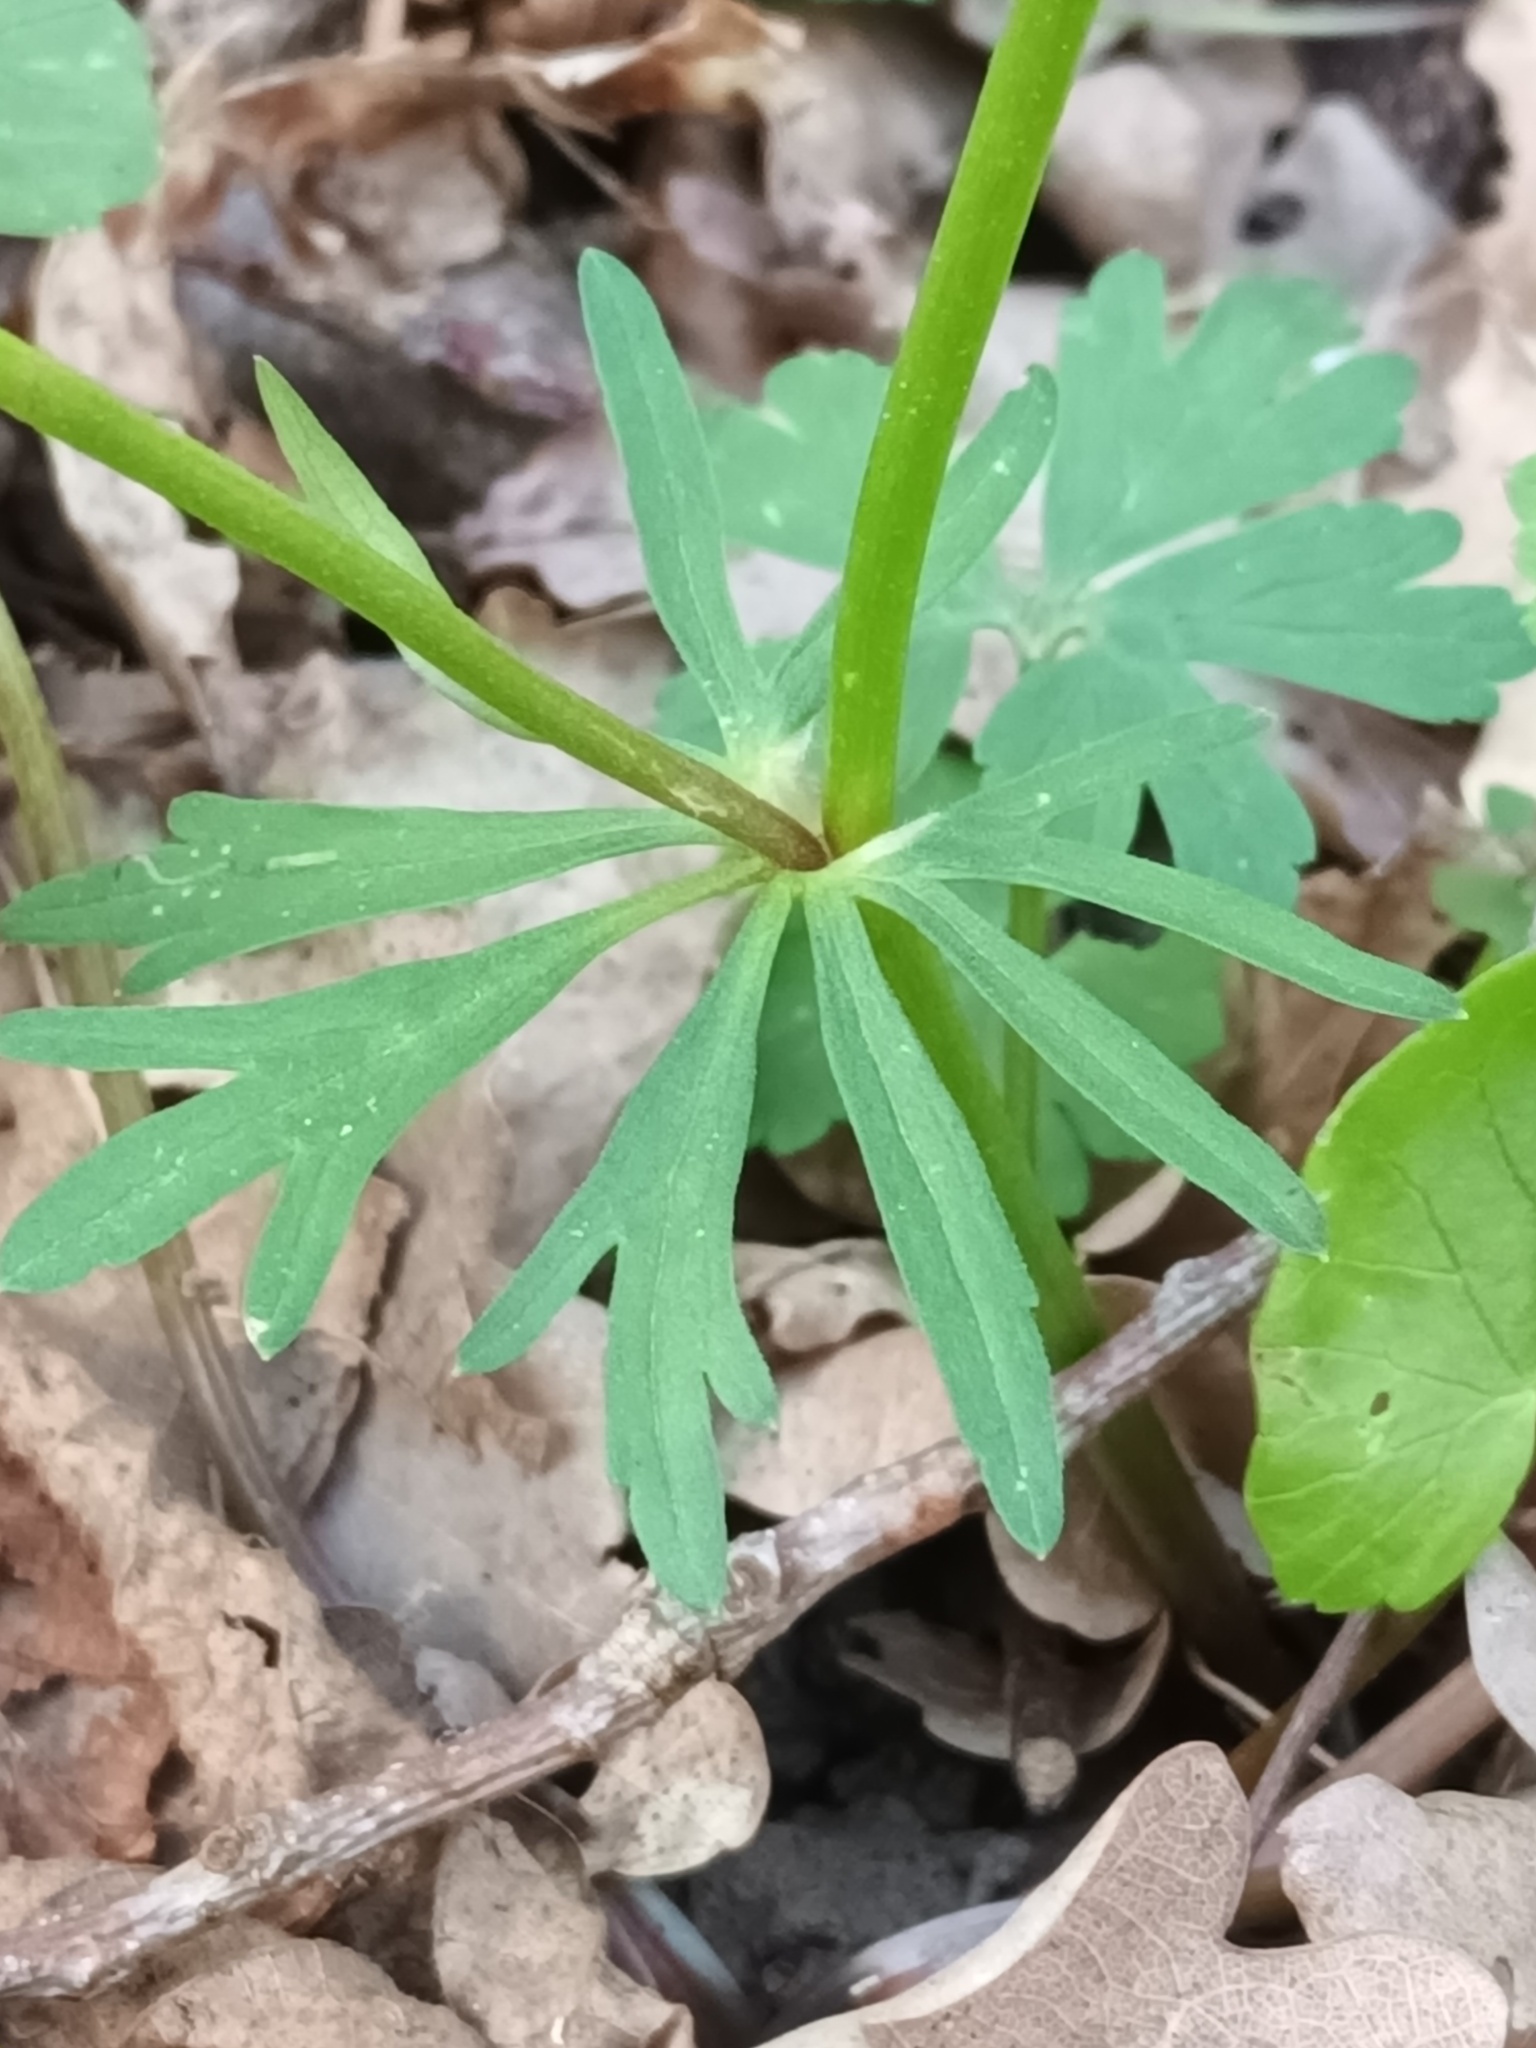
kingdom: Plantae
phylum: Tracheophyta
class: Magnoliopsida
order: Ranunculales
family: Ranunculaceae
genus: Ranunculus
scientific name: Ranunculus auricomus
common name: Goldilocks buttercup
